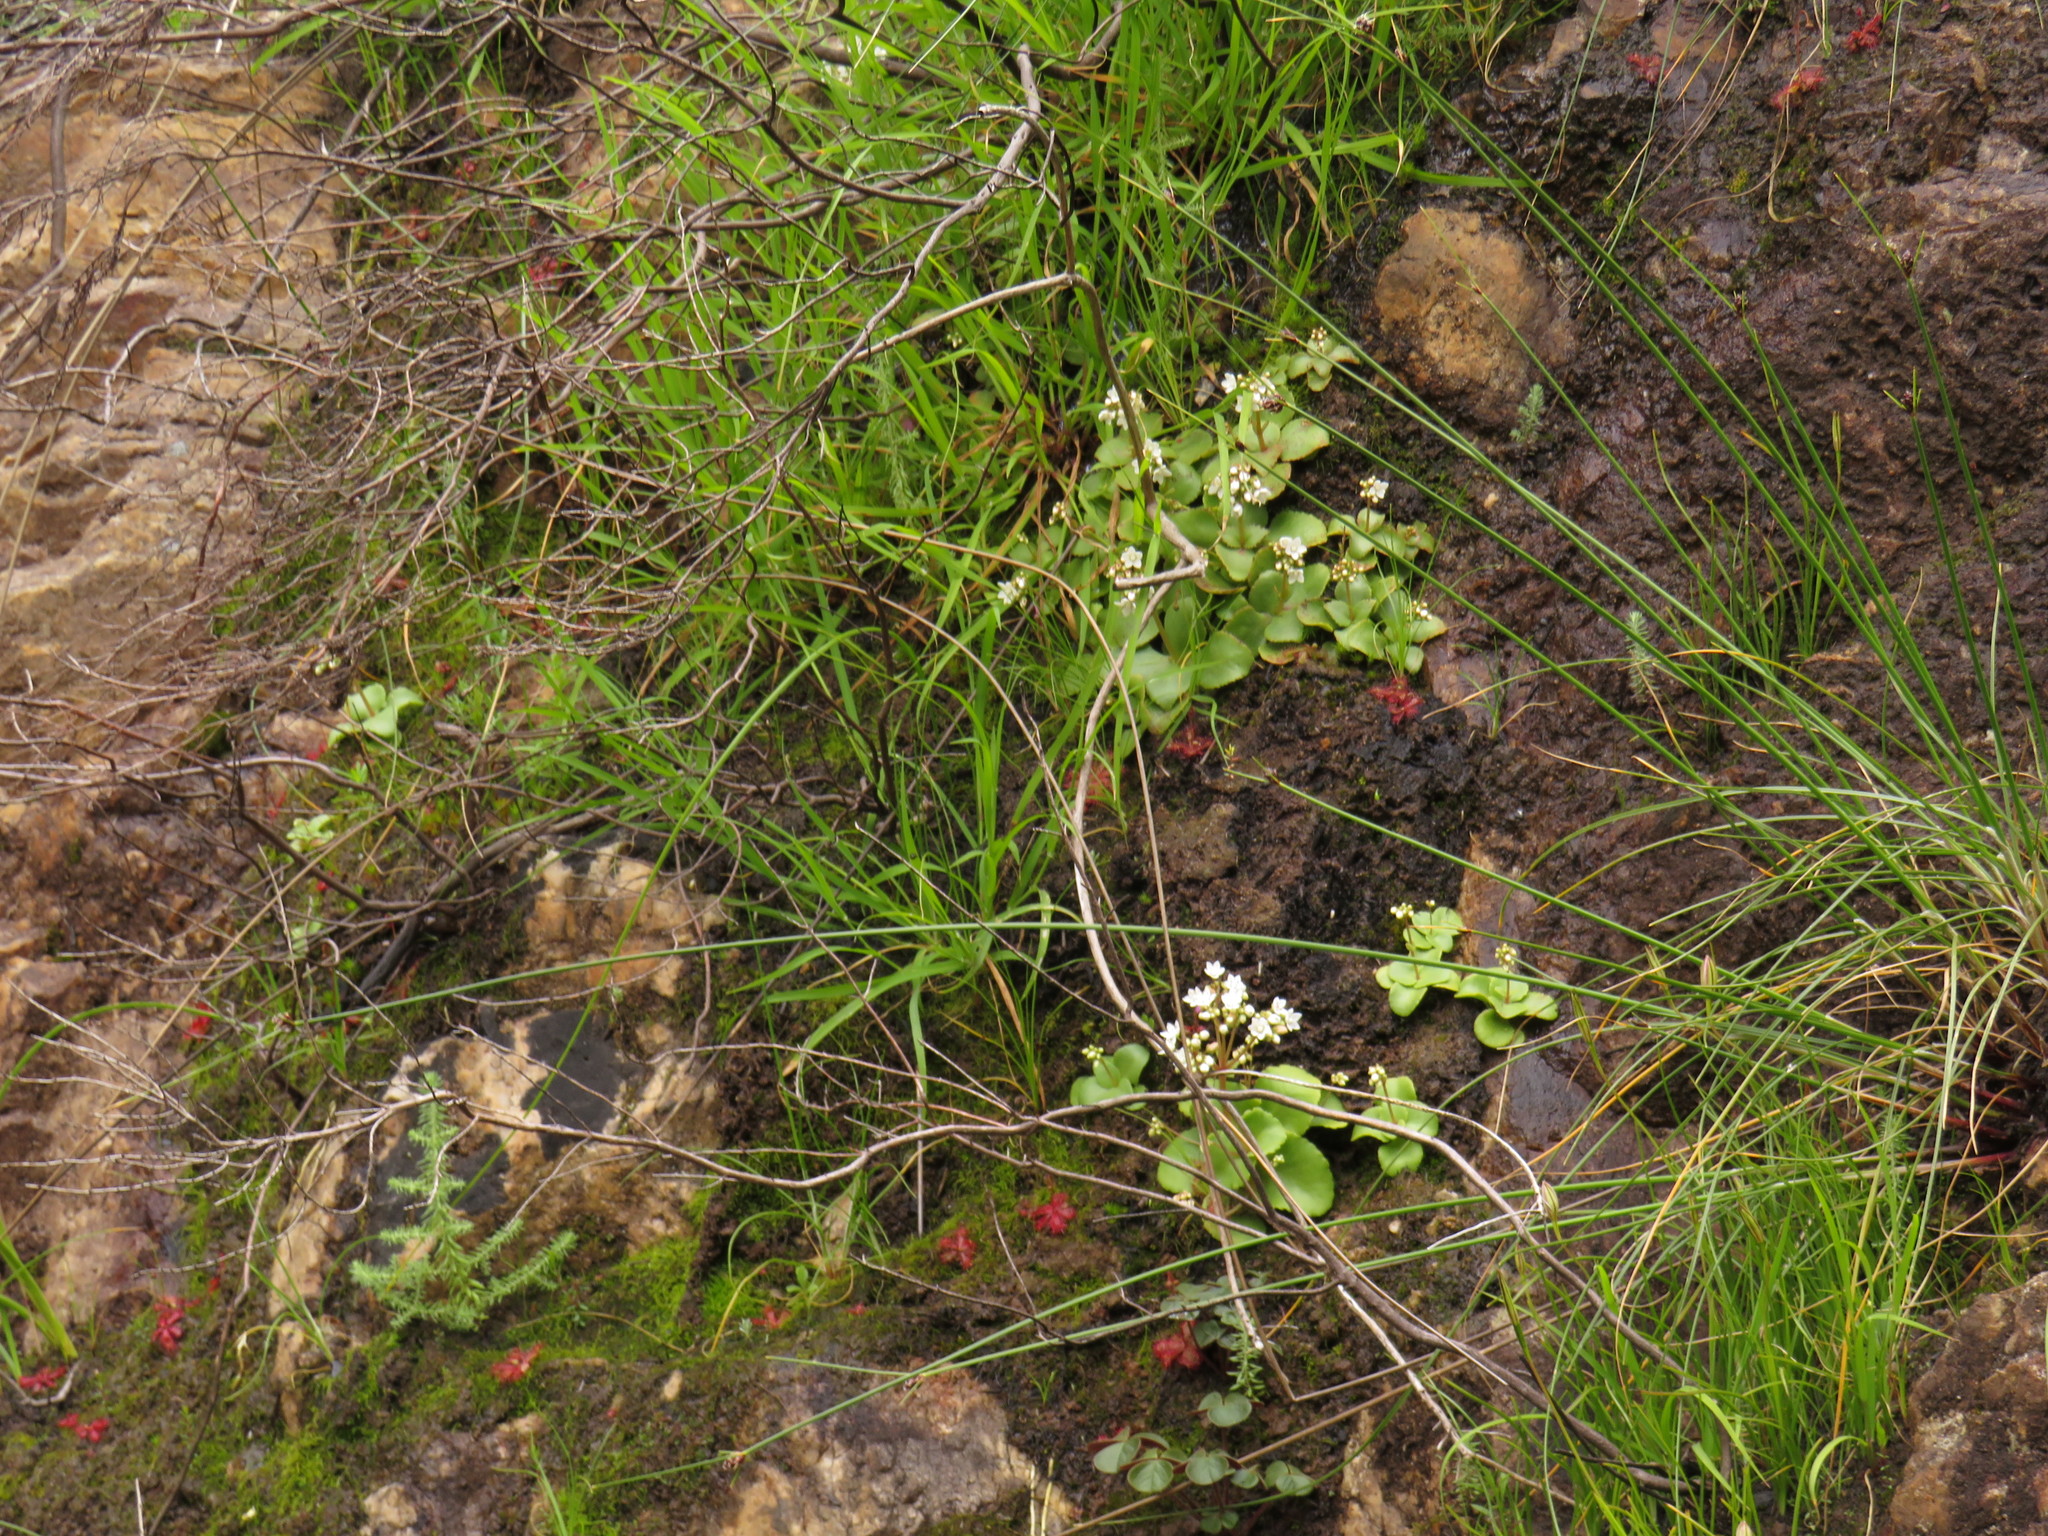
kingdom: Plantae
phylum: Tracheophyta
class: Magnoliopsida
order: Saxifragales
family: Crassulaceae
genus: Crassula
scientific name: Crassula capensis
